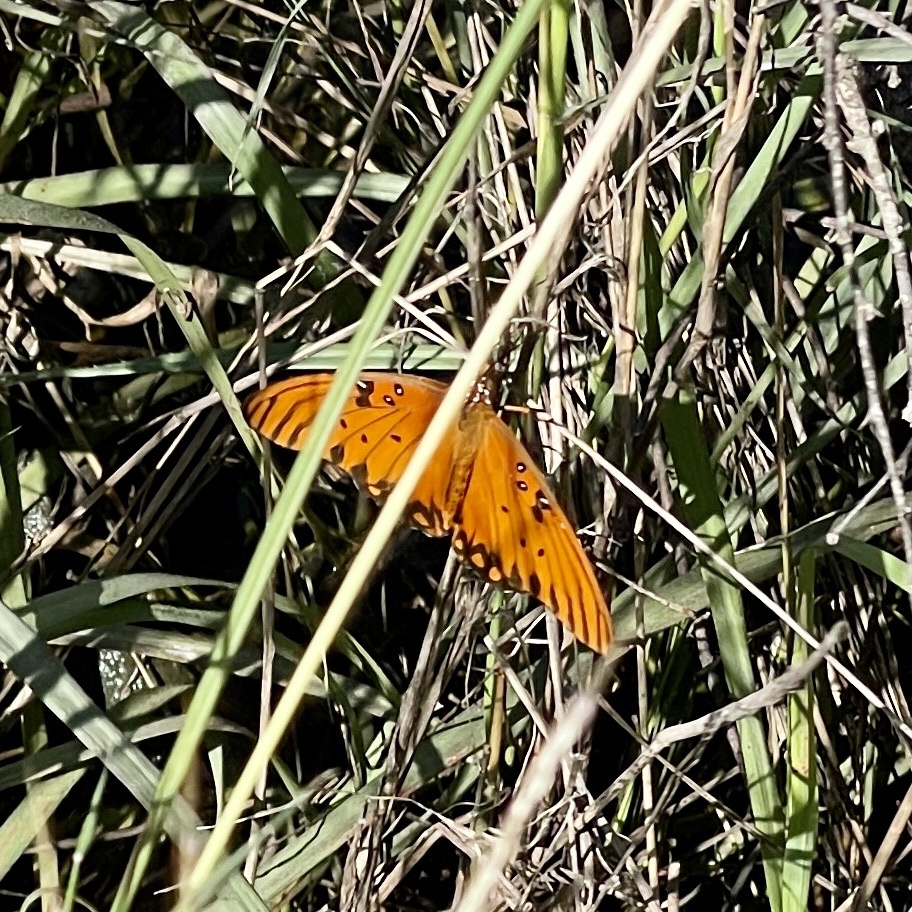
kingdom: Animalia
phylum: Arthropoda
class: Insecta
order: Lepidoptera
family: Nymphalidae
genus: Dione
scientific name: Dione vanillae
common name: Gulf fritillary
